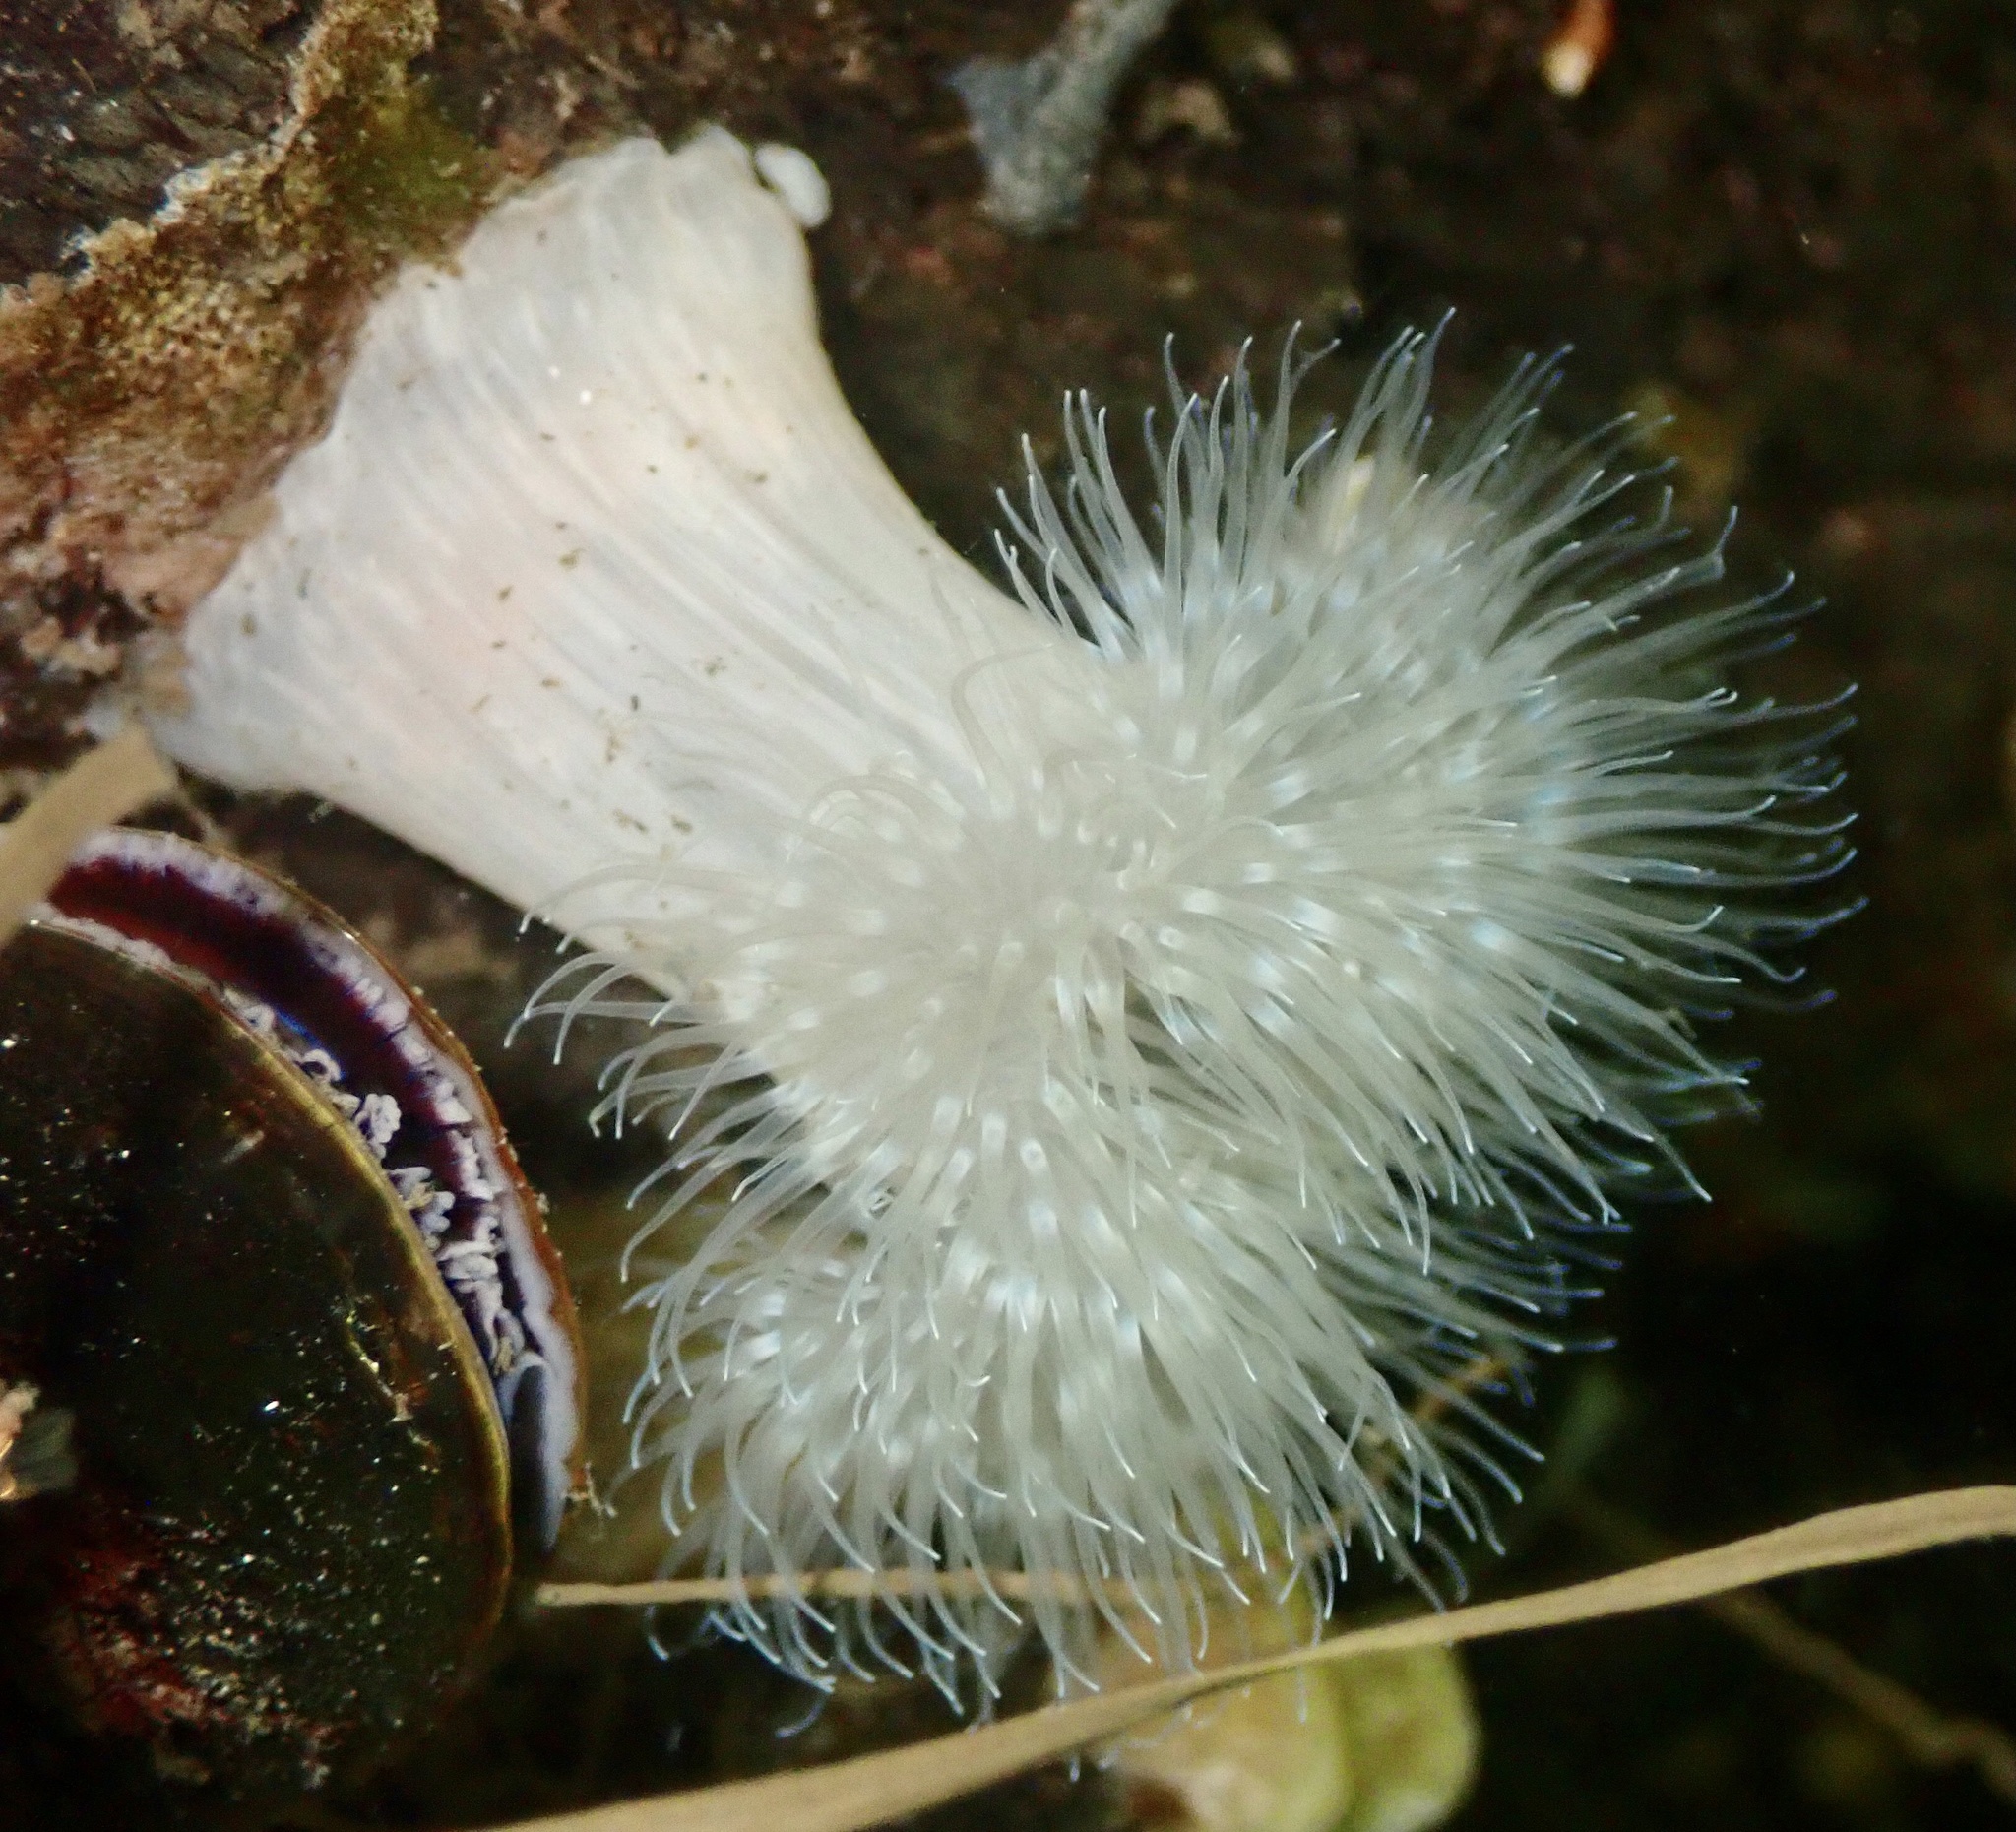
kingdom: Animalia
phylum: Cnidaria
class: Anthozoa
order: Actiniaria
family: Metridiidae
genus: Metridium
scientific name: Metridium senile
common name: Clonal plumose anemone
